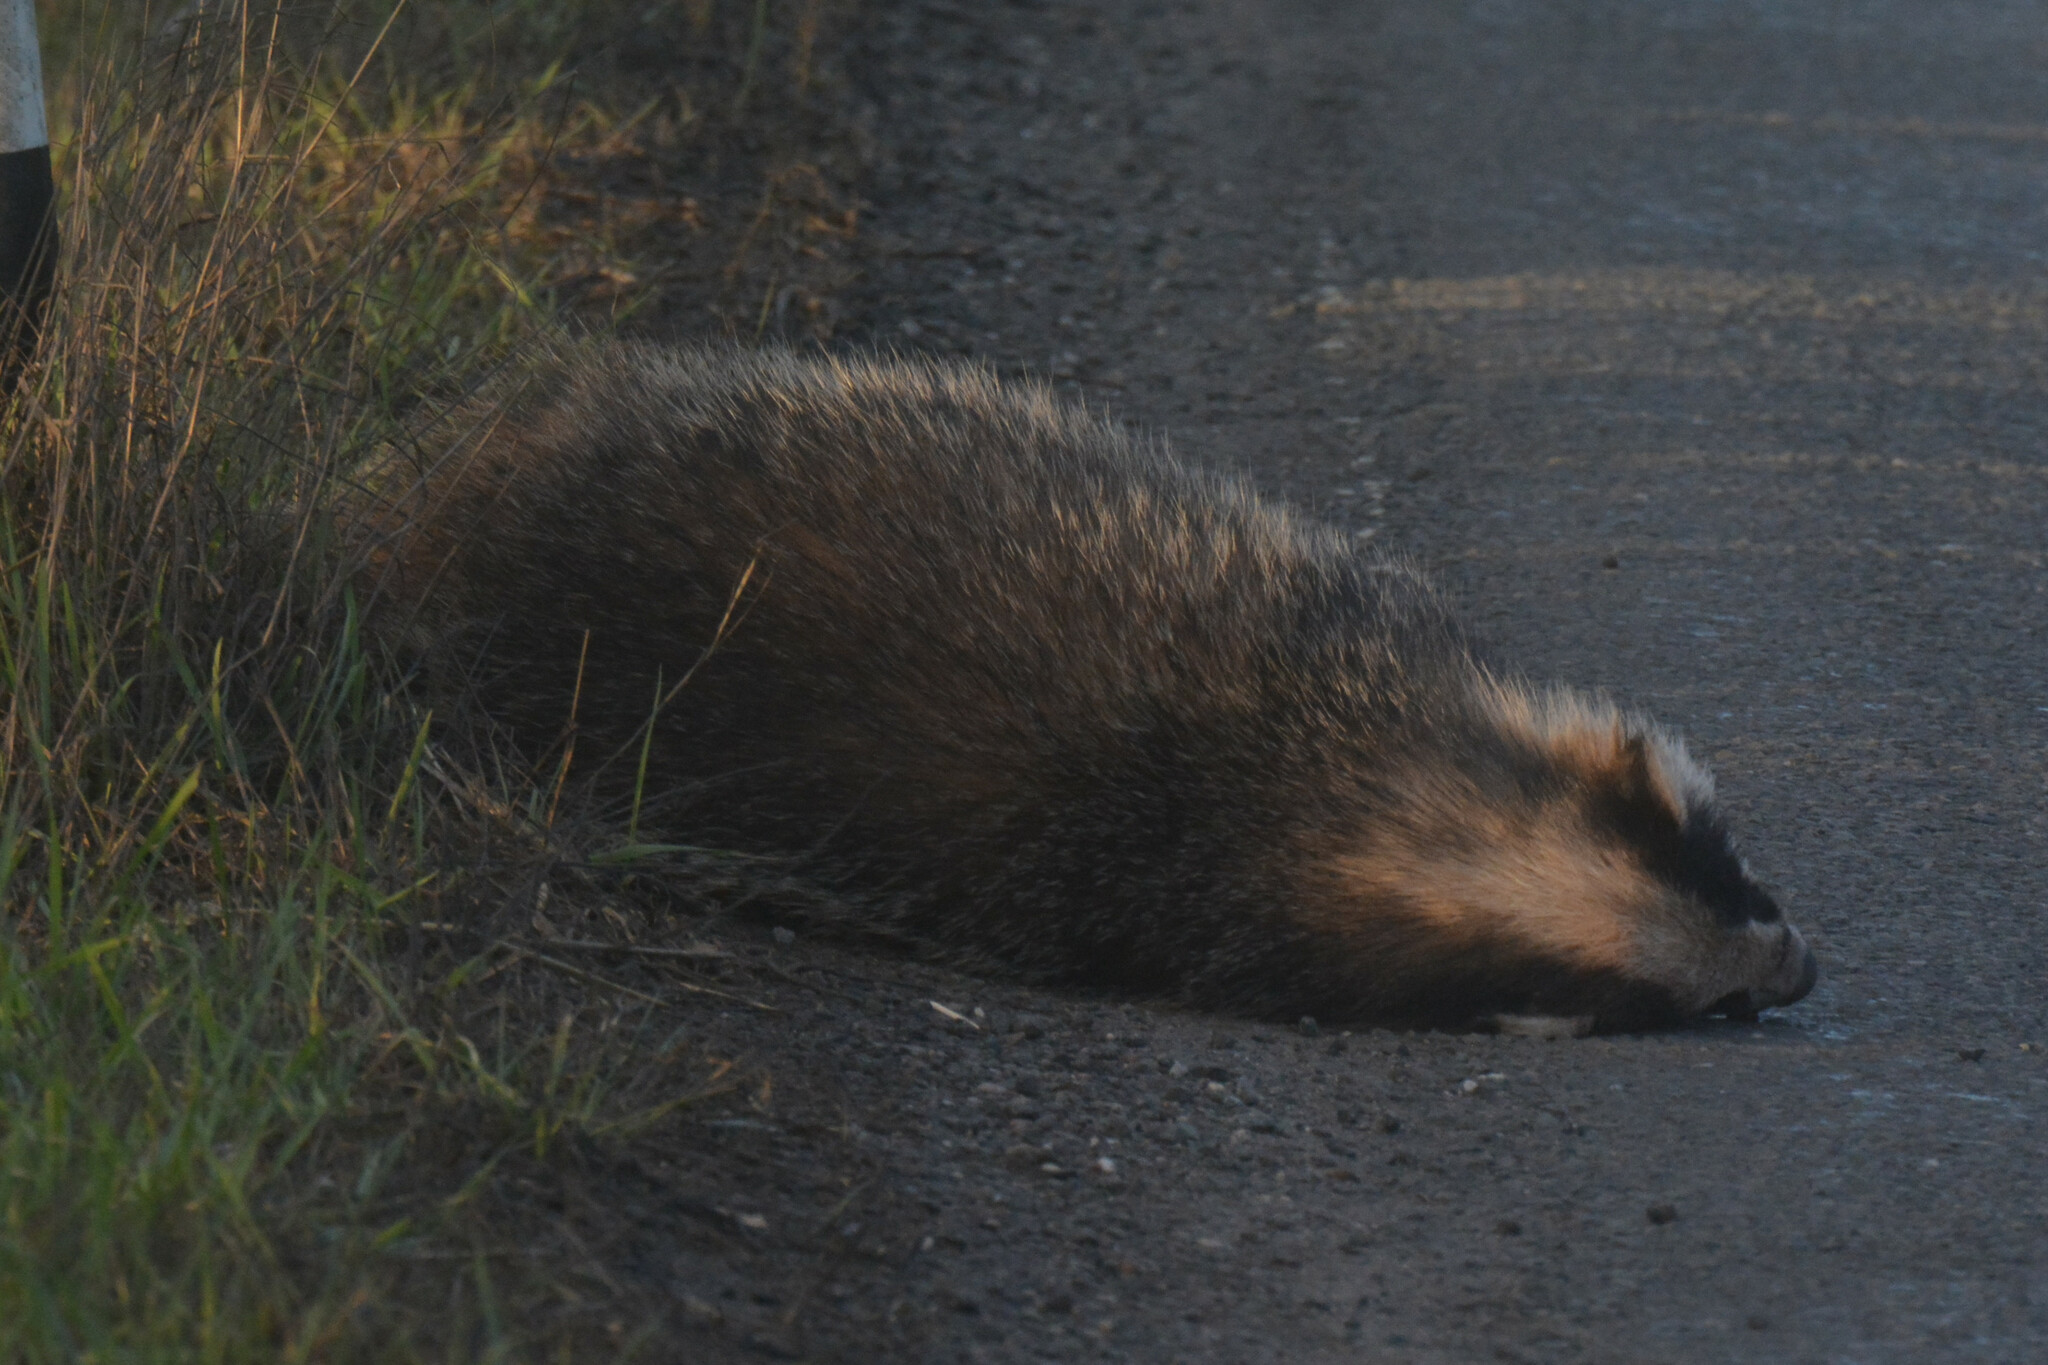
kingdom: Animalia
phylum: Chordata
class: Mammalia
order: Carnivora
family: Mustelidae
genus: Meles
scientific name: Meles meles
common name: Eurasian badger
